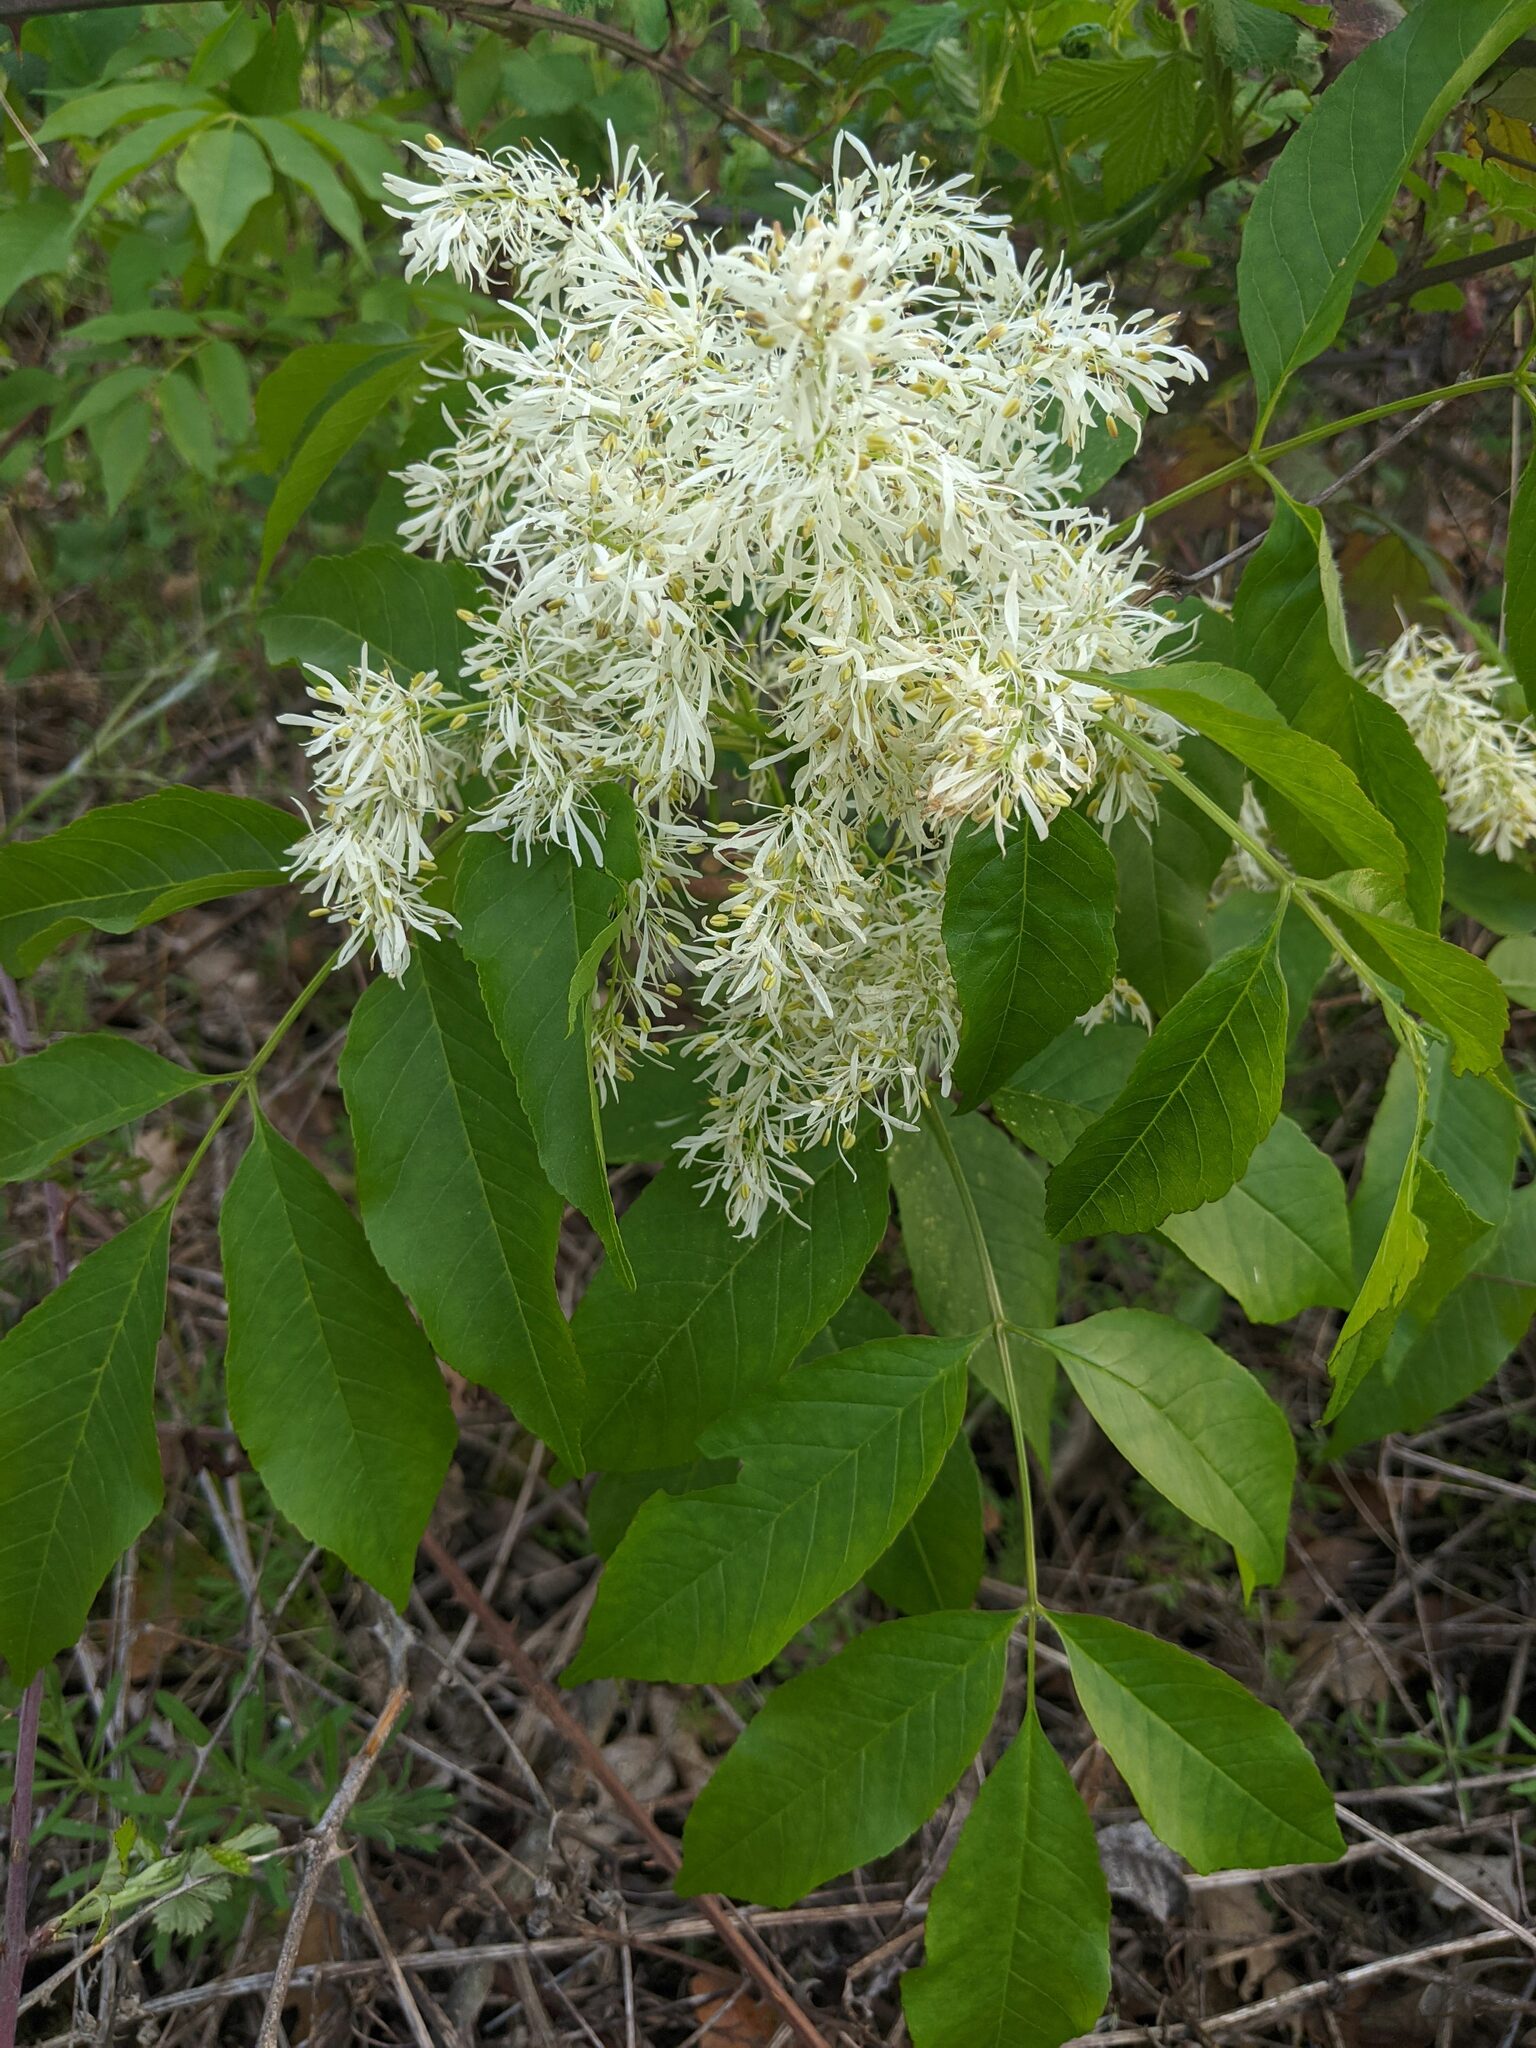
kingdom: Plantae
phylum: Tracheophyta
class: Magnoliopsida
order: Lamiales
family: Oleaceae
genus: Fraxinus
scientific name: Fraxinus ornus
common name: Manna ash
